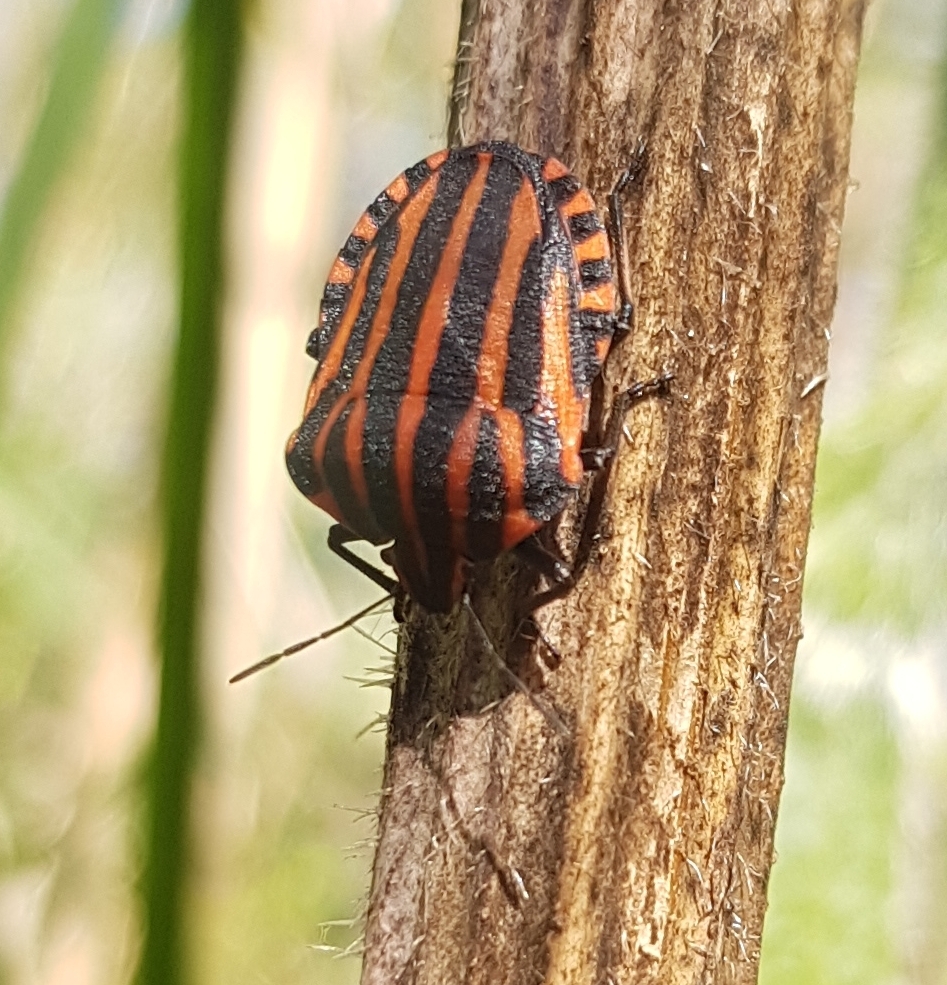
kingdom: Animalia
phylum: Arthropoda
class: Insecta
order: Hemiptera
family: Pentatomidae
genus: Graphosoma
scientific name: Graphosoma italicum
